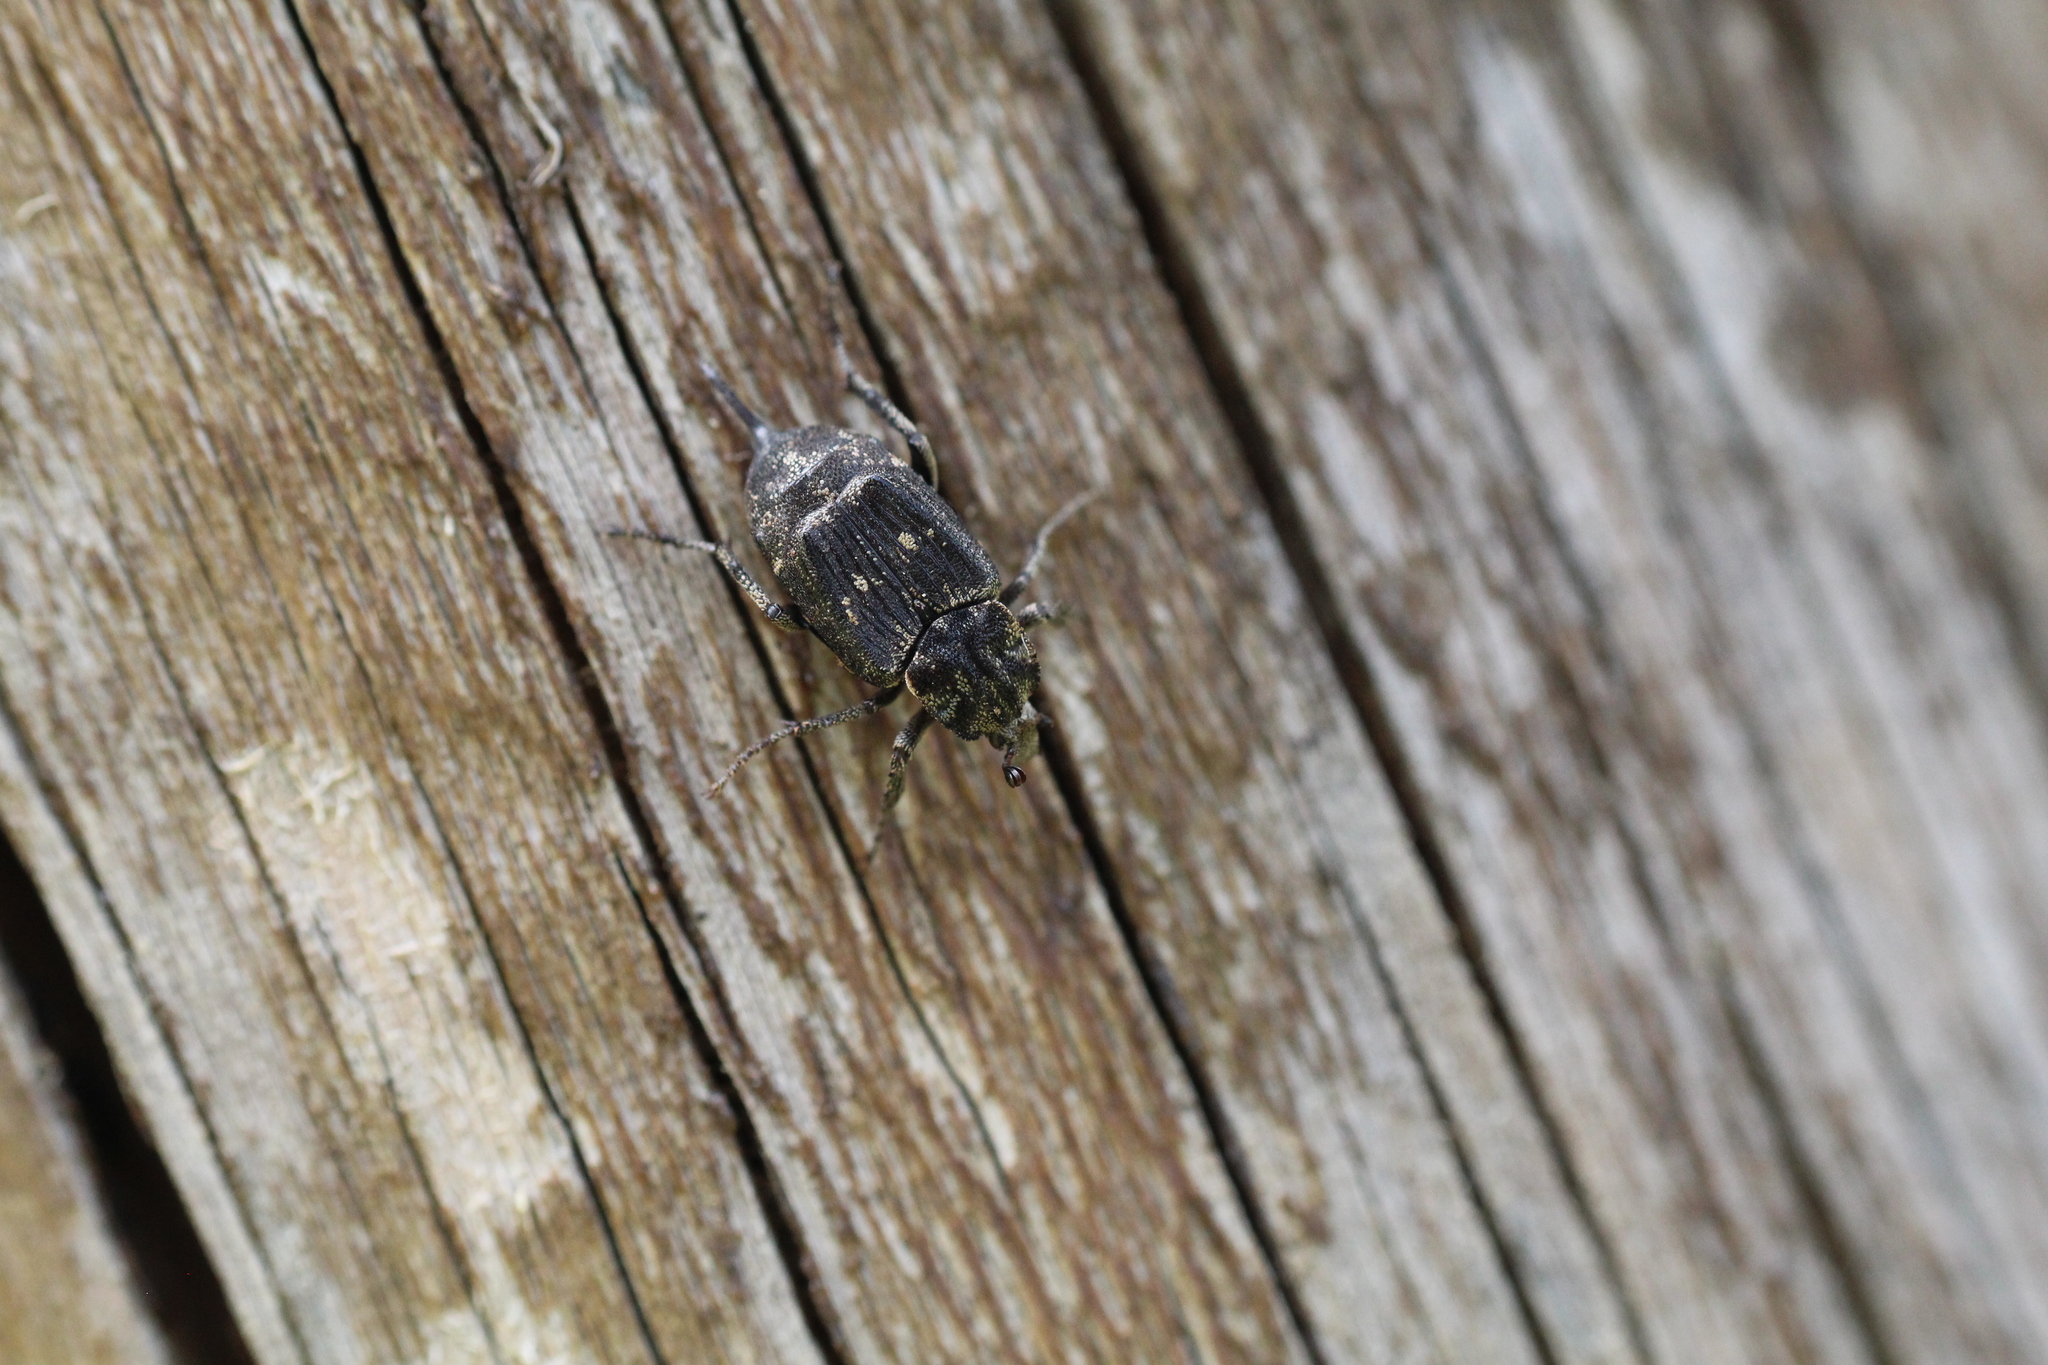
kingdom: Animalia
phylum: Arthropoda
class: Insecta
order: Coleoptera
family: Scarabaeidae
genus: Valgus
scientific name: Valgus hemipterus
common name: Bug flower chafer
